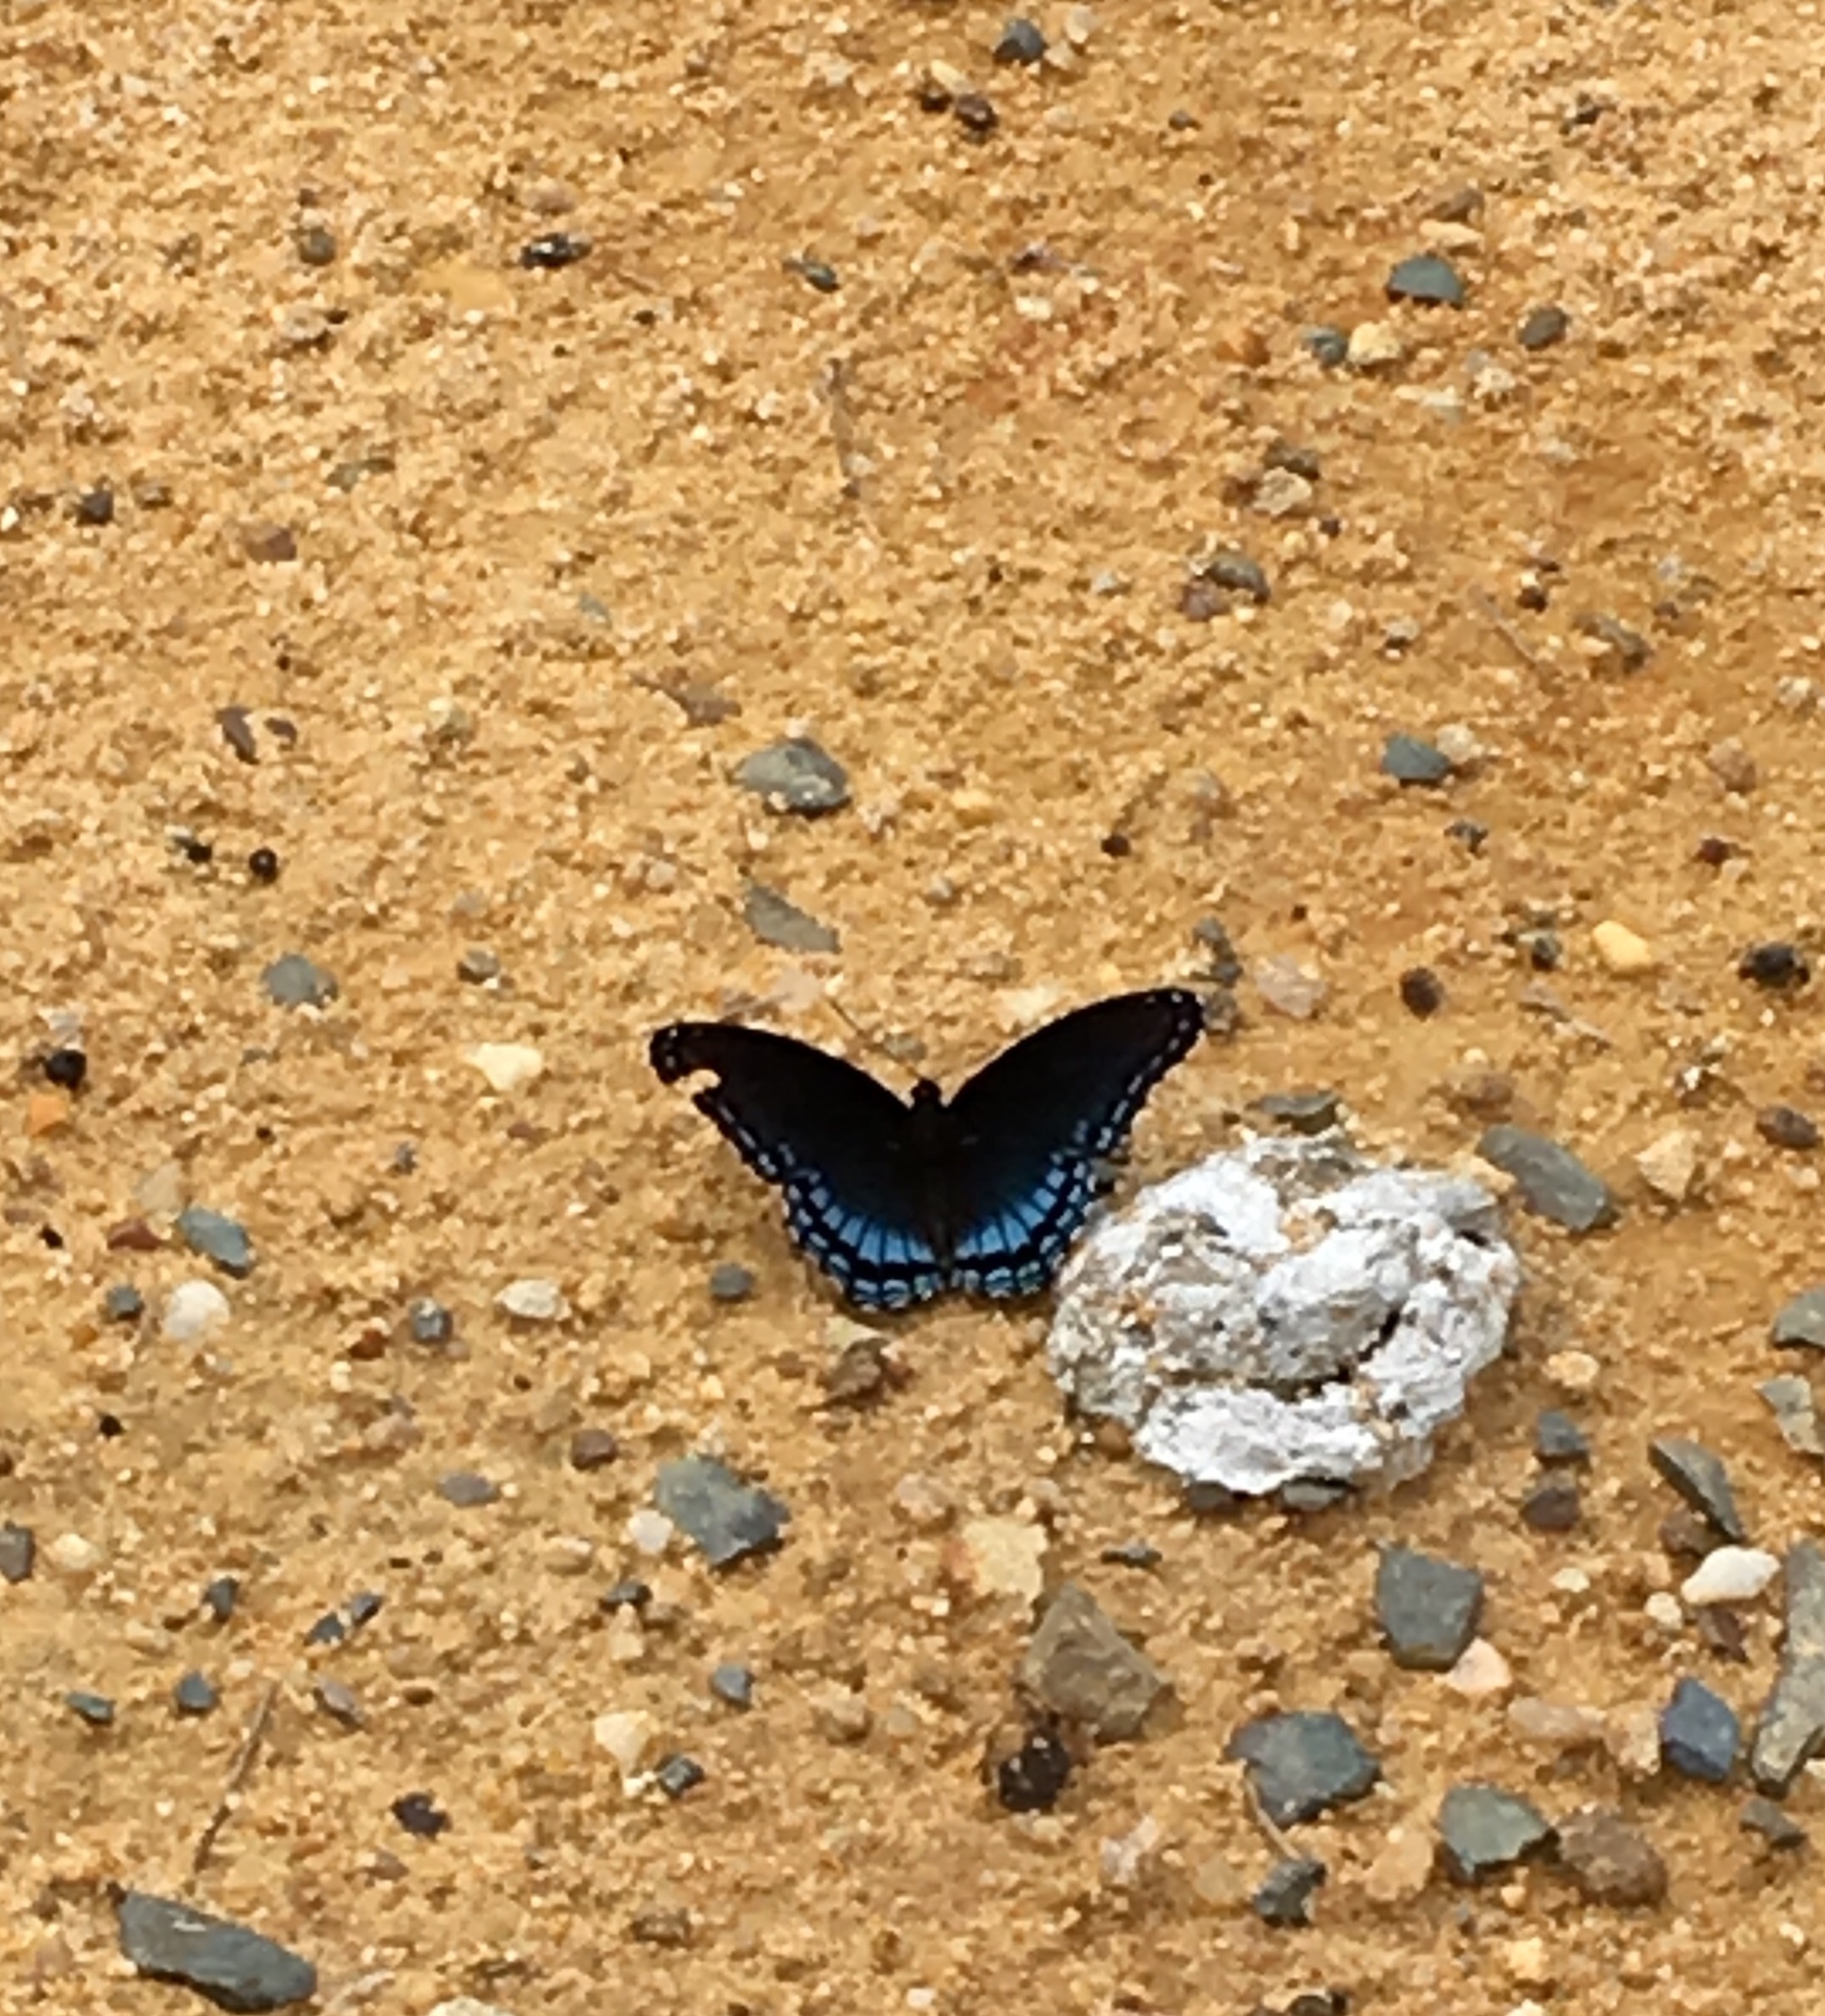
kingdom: Animalia
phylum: Arthropoda
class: Insecta
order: Lepidoptera
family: Nymphalidae
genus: Limenitis
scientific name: Limenitis astyanax
